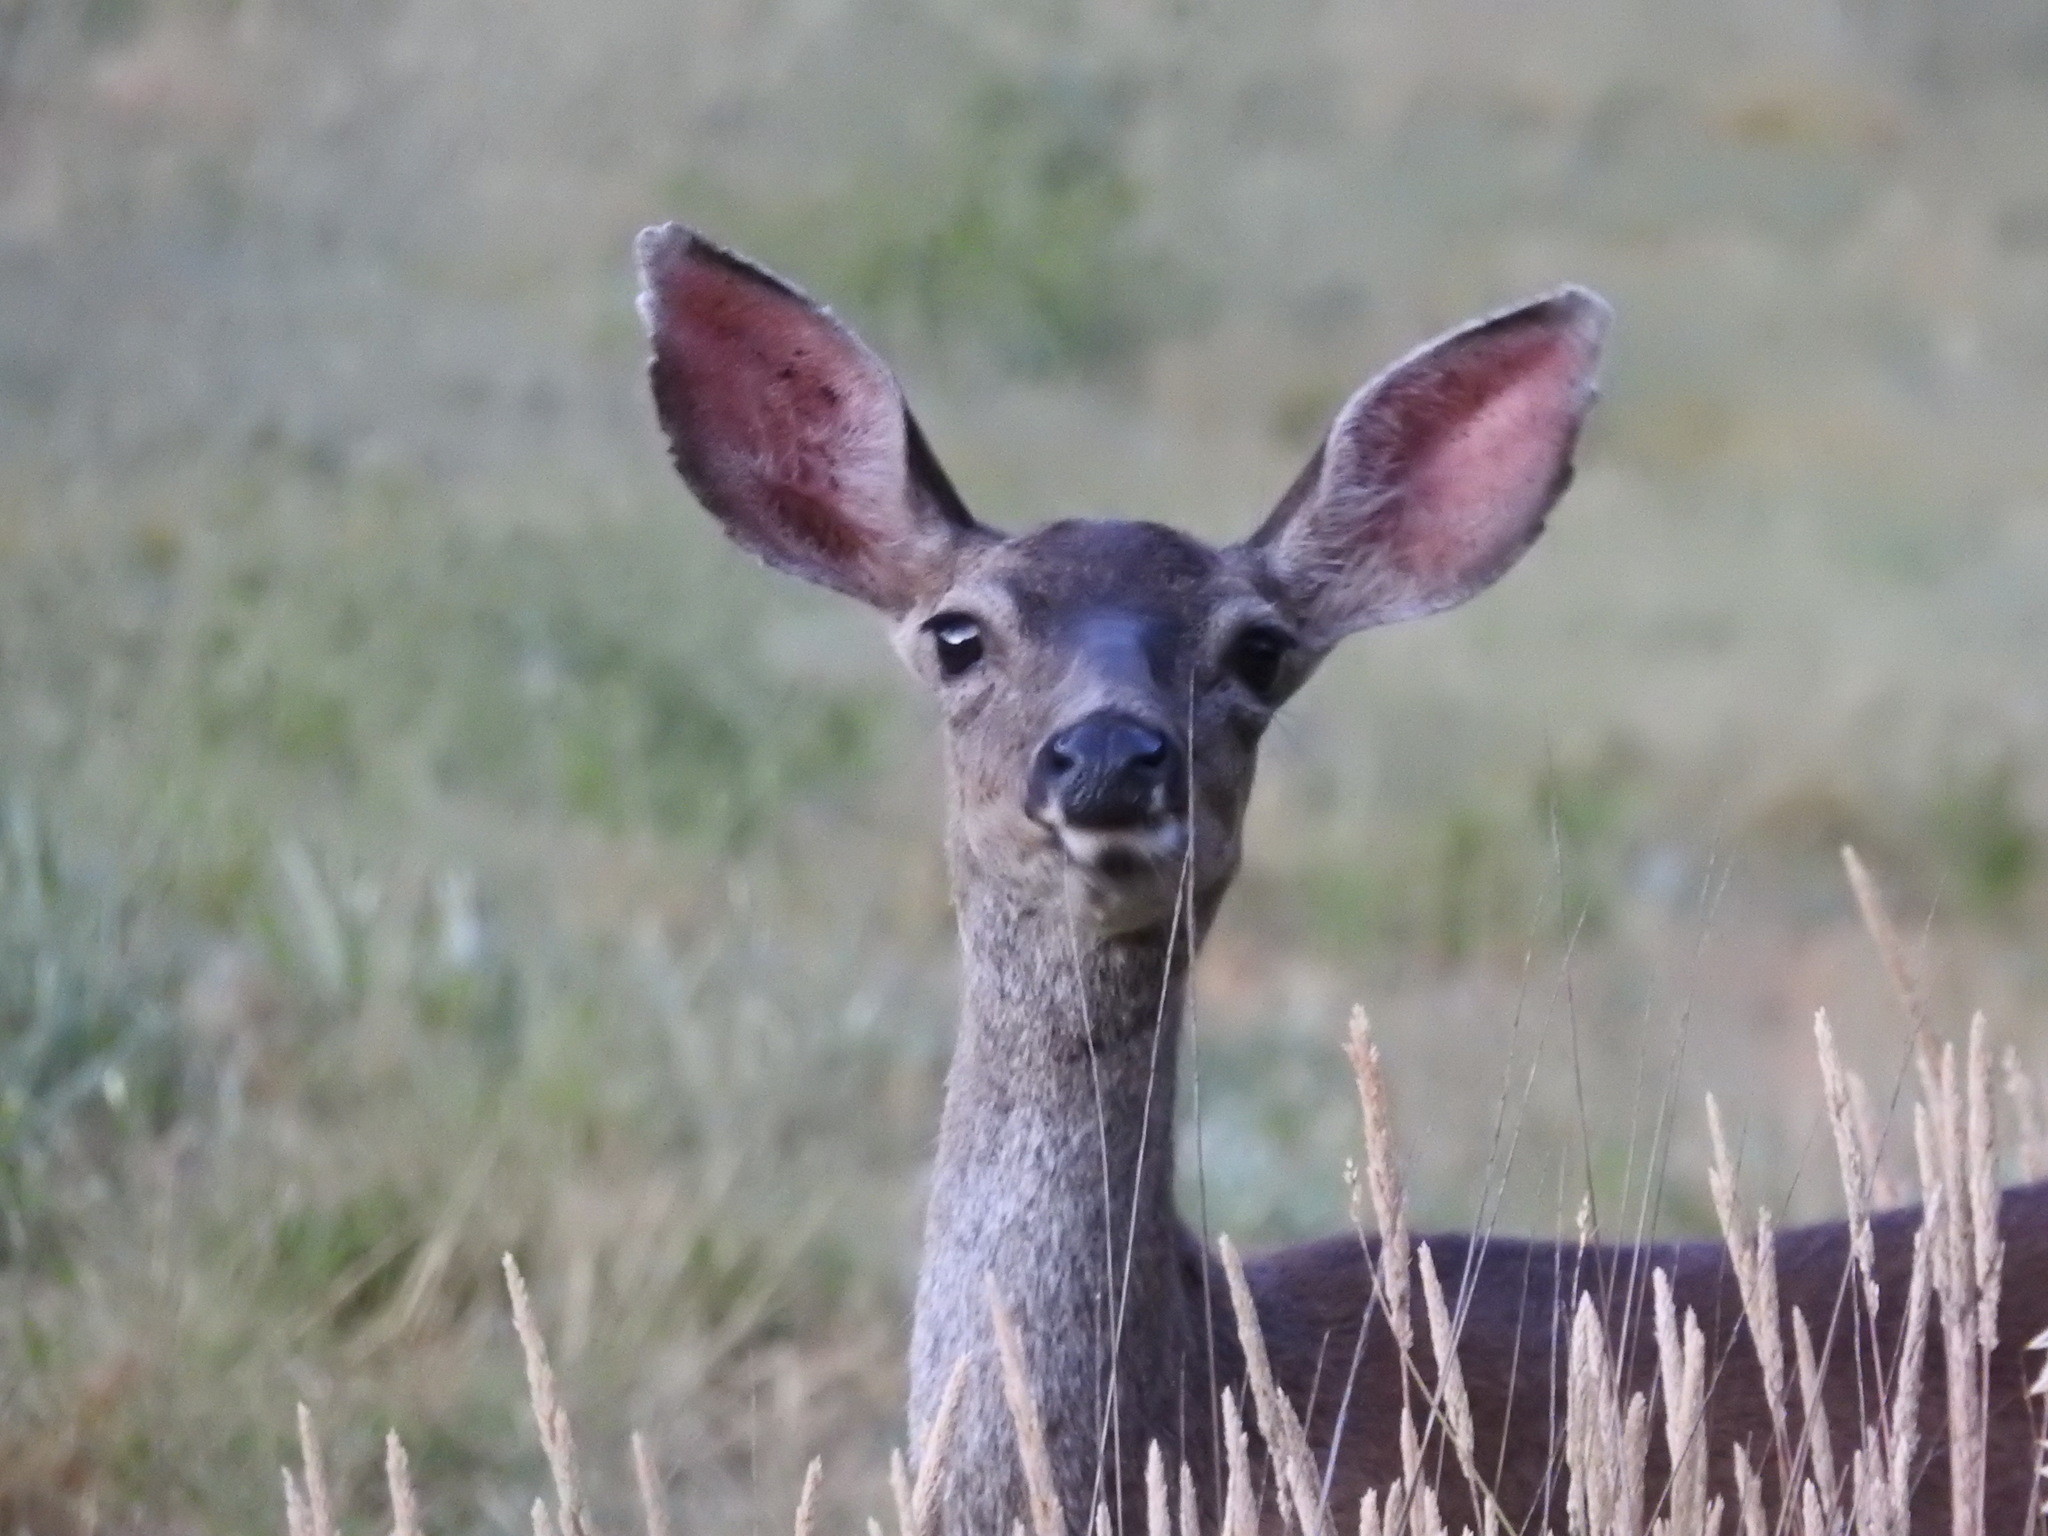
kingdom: Animalia
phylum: Chordata
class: Mammalia
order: Artiodactyla
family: Cervidae
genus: Odocoileus
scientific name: Odocoileus hemionus
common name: Mule deer
